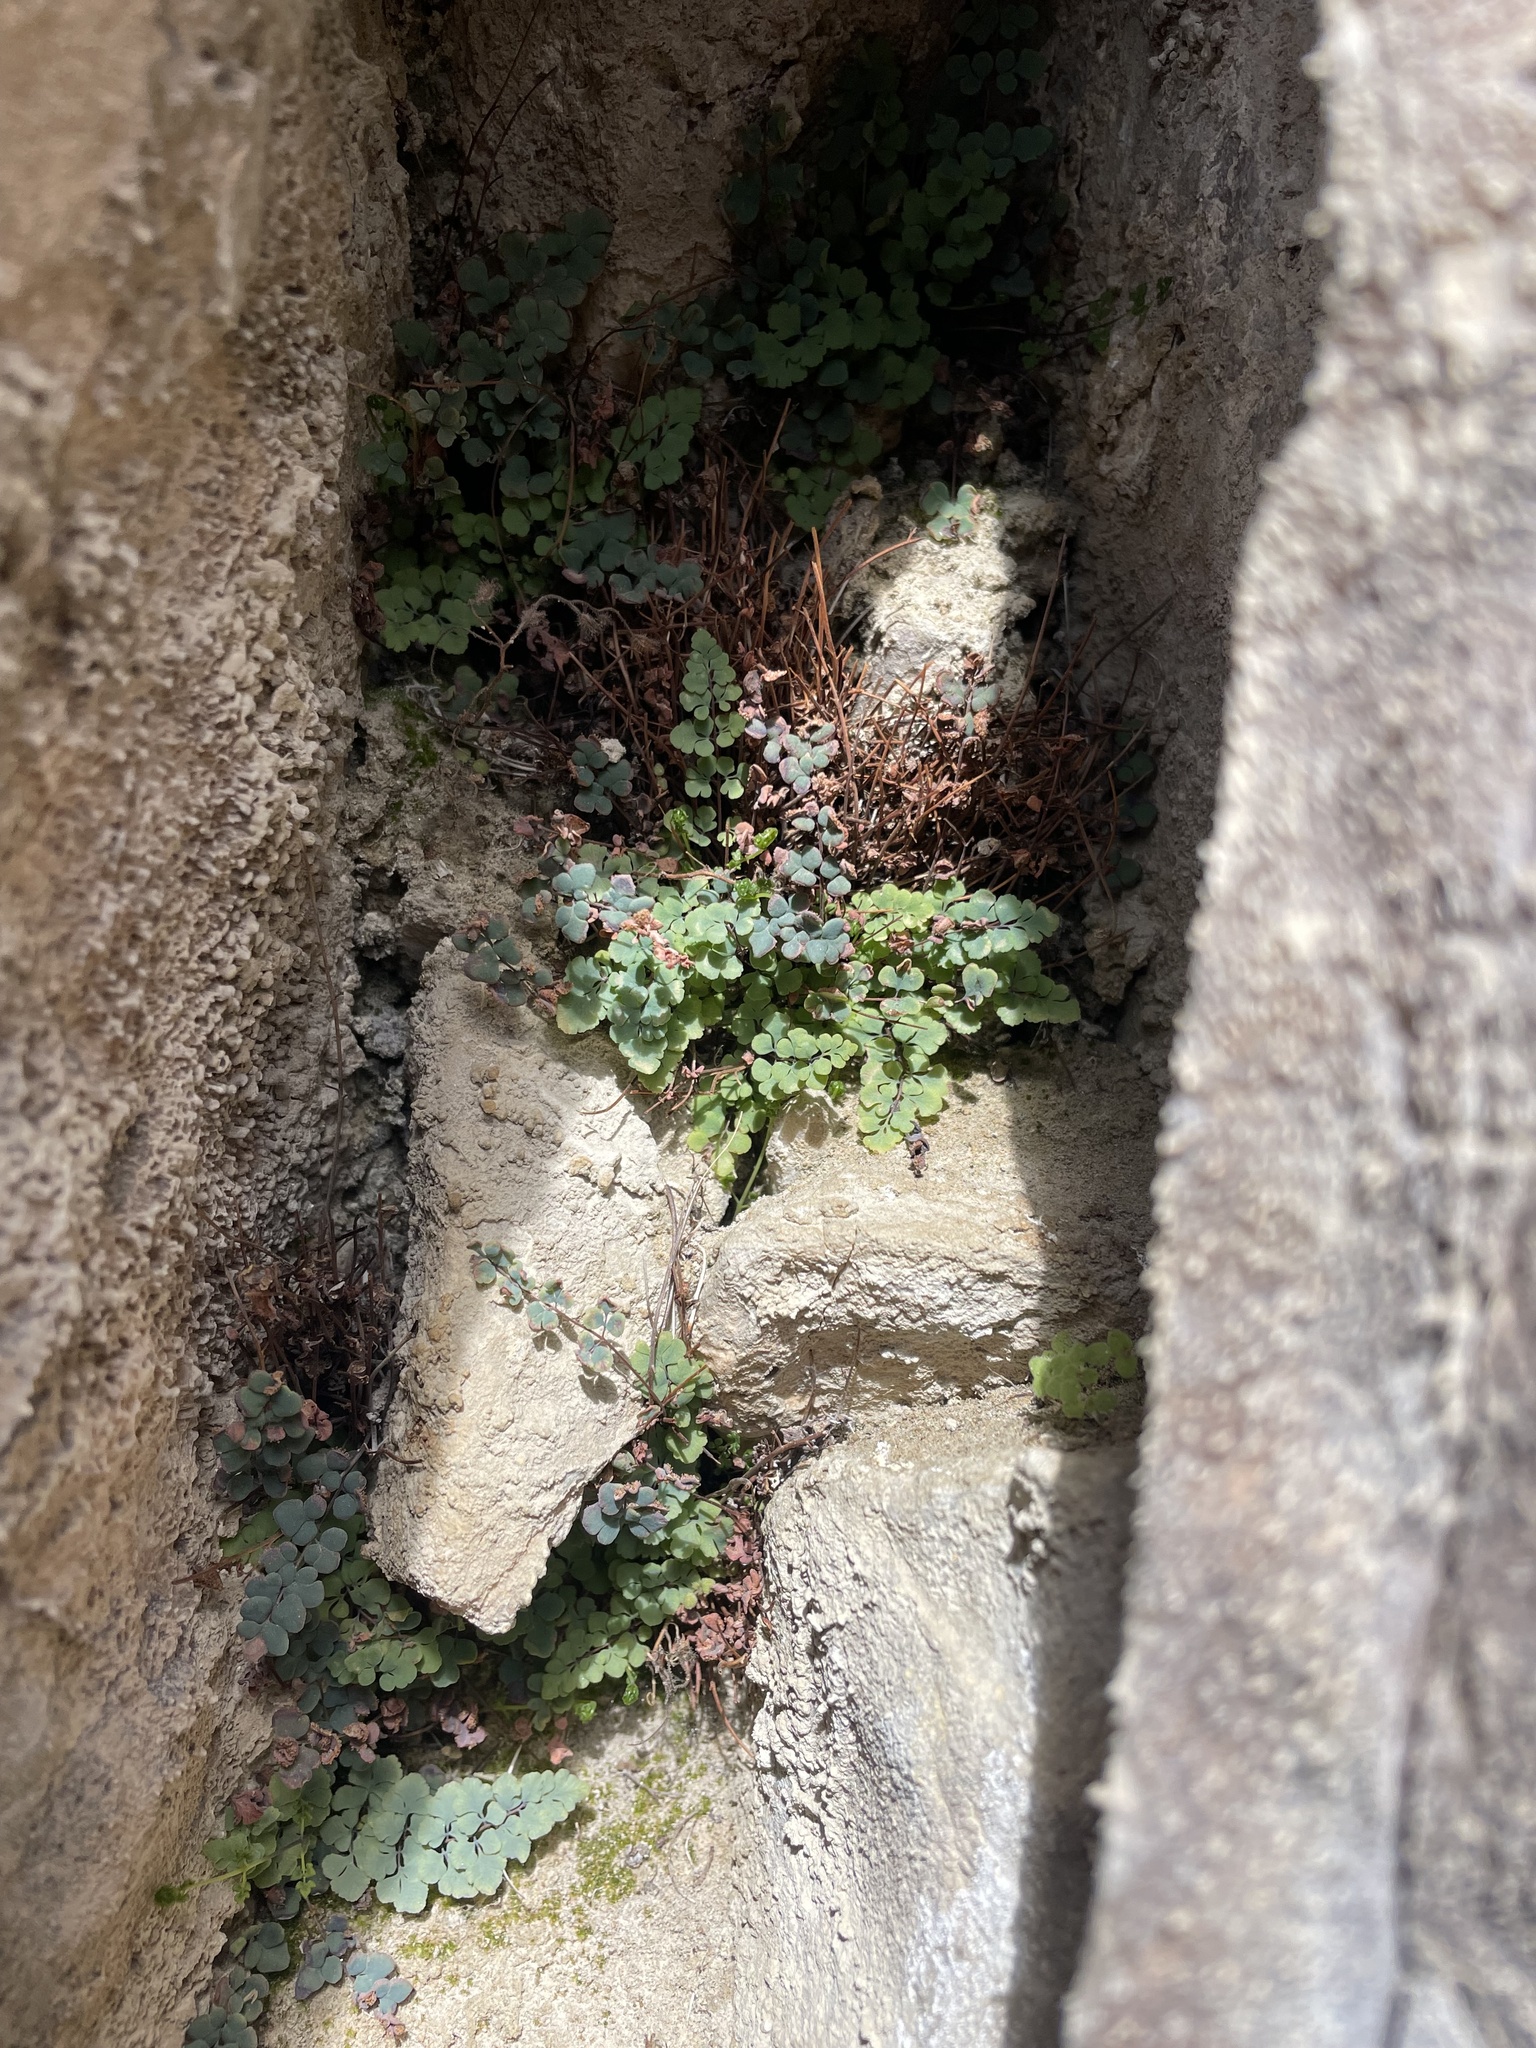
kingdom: Plantae
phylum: Tracheophyta
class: Polypodiopsida
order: Polypodiales
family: Pteridaceae
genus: Argyrochosma
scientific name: Argyrochosma jonesii
